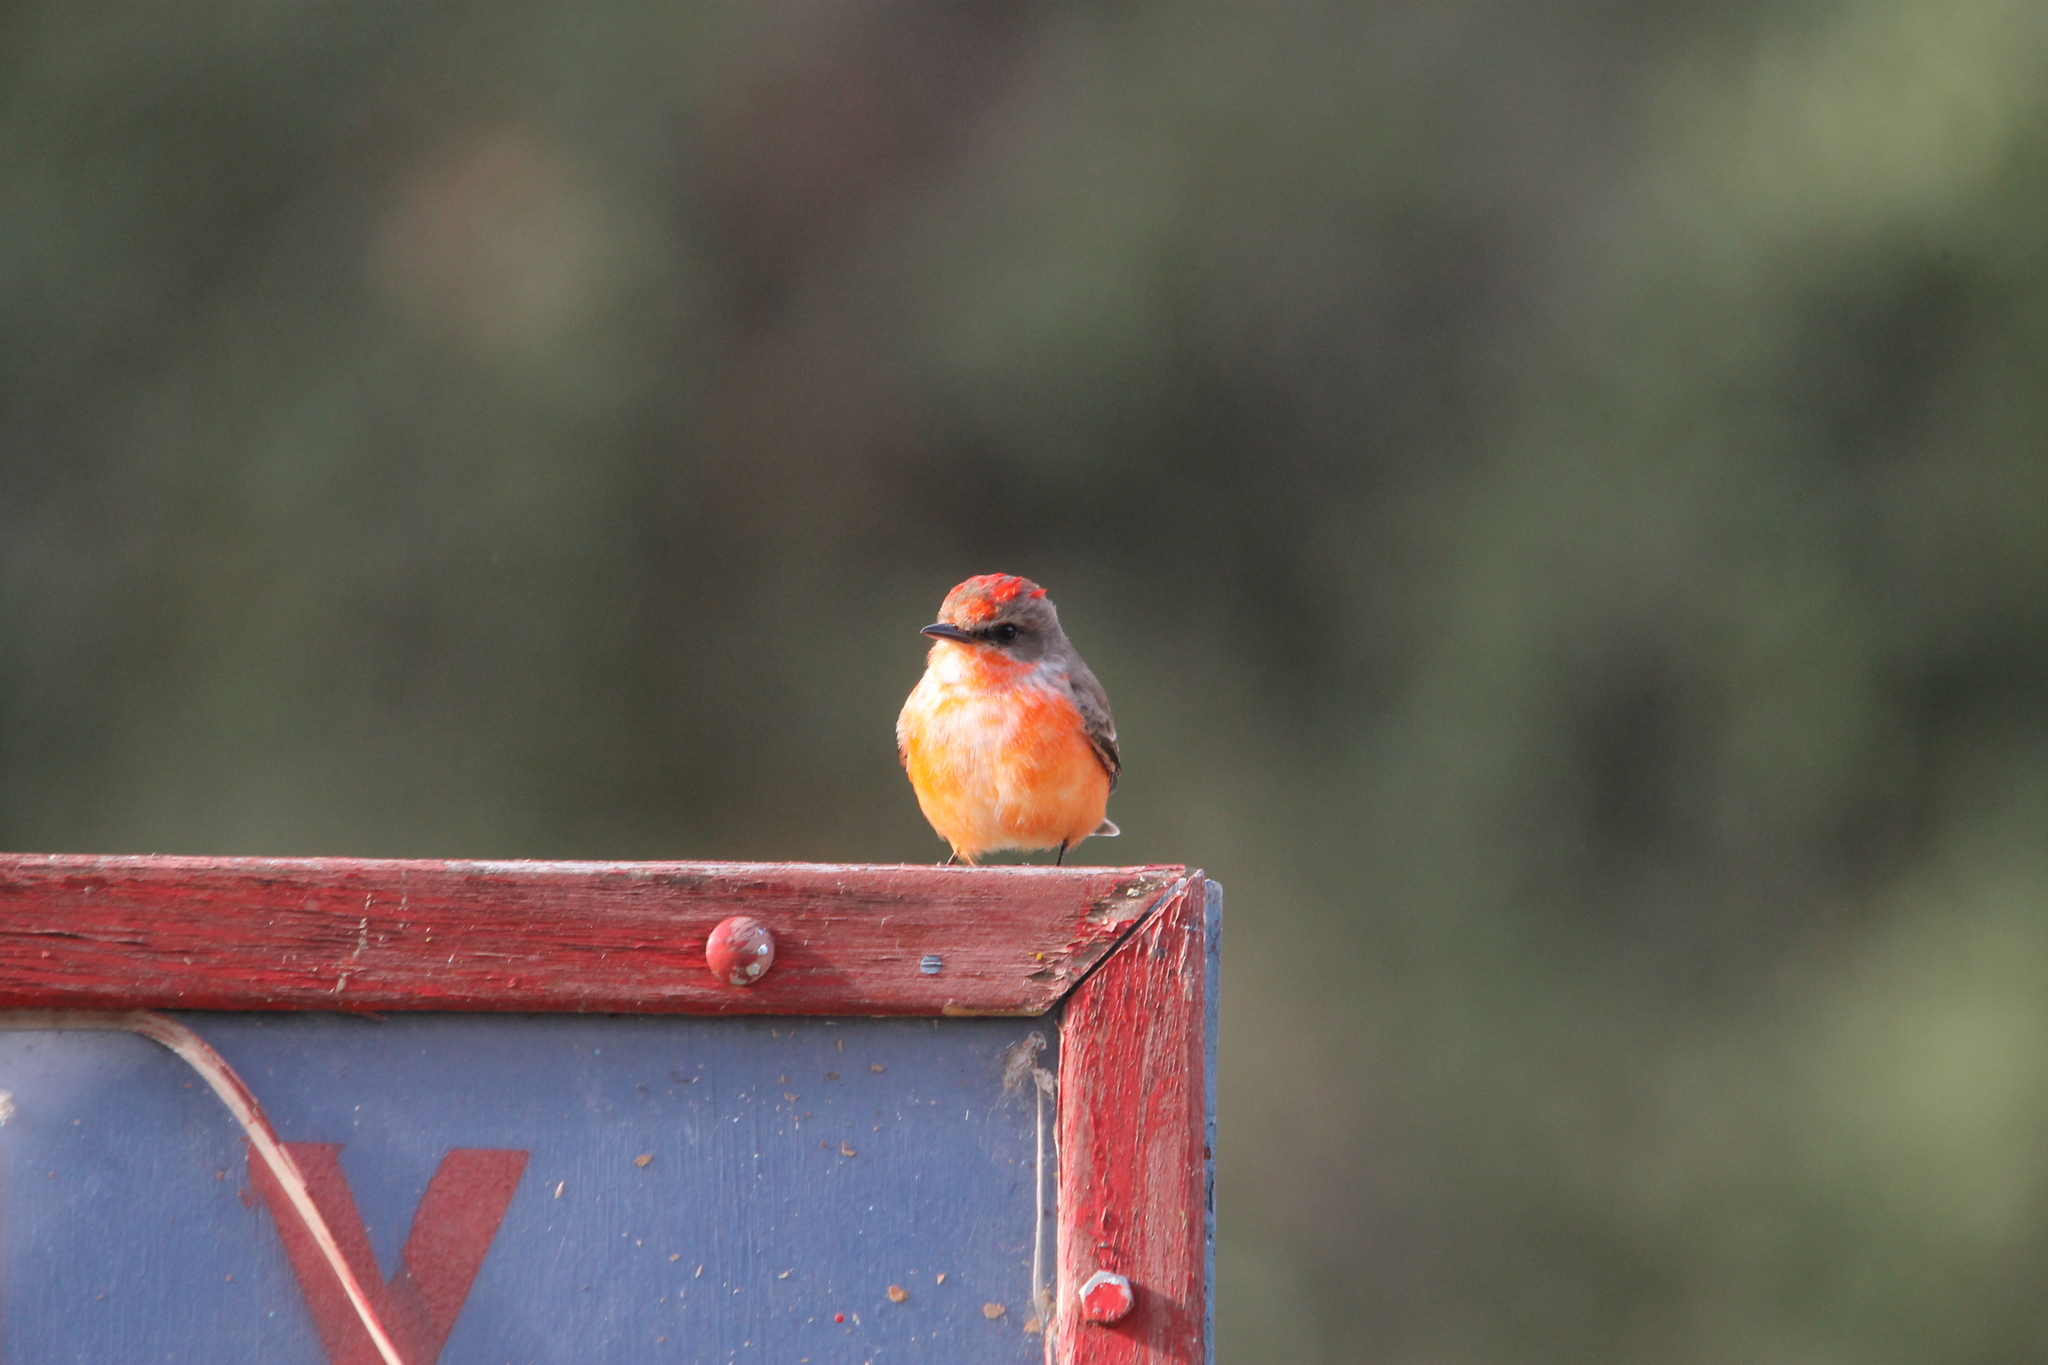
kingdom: Animalia
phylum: Chordata
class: Aves
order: Passeriformes
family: Tyrannidae
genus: Pyrocephalus
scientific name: Pyrocephalus rubinus
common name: Vermilion flycatcher
